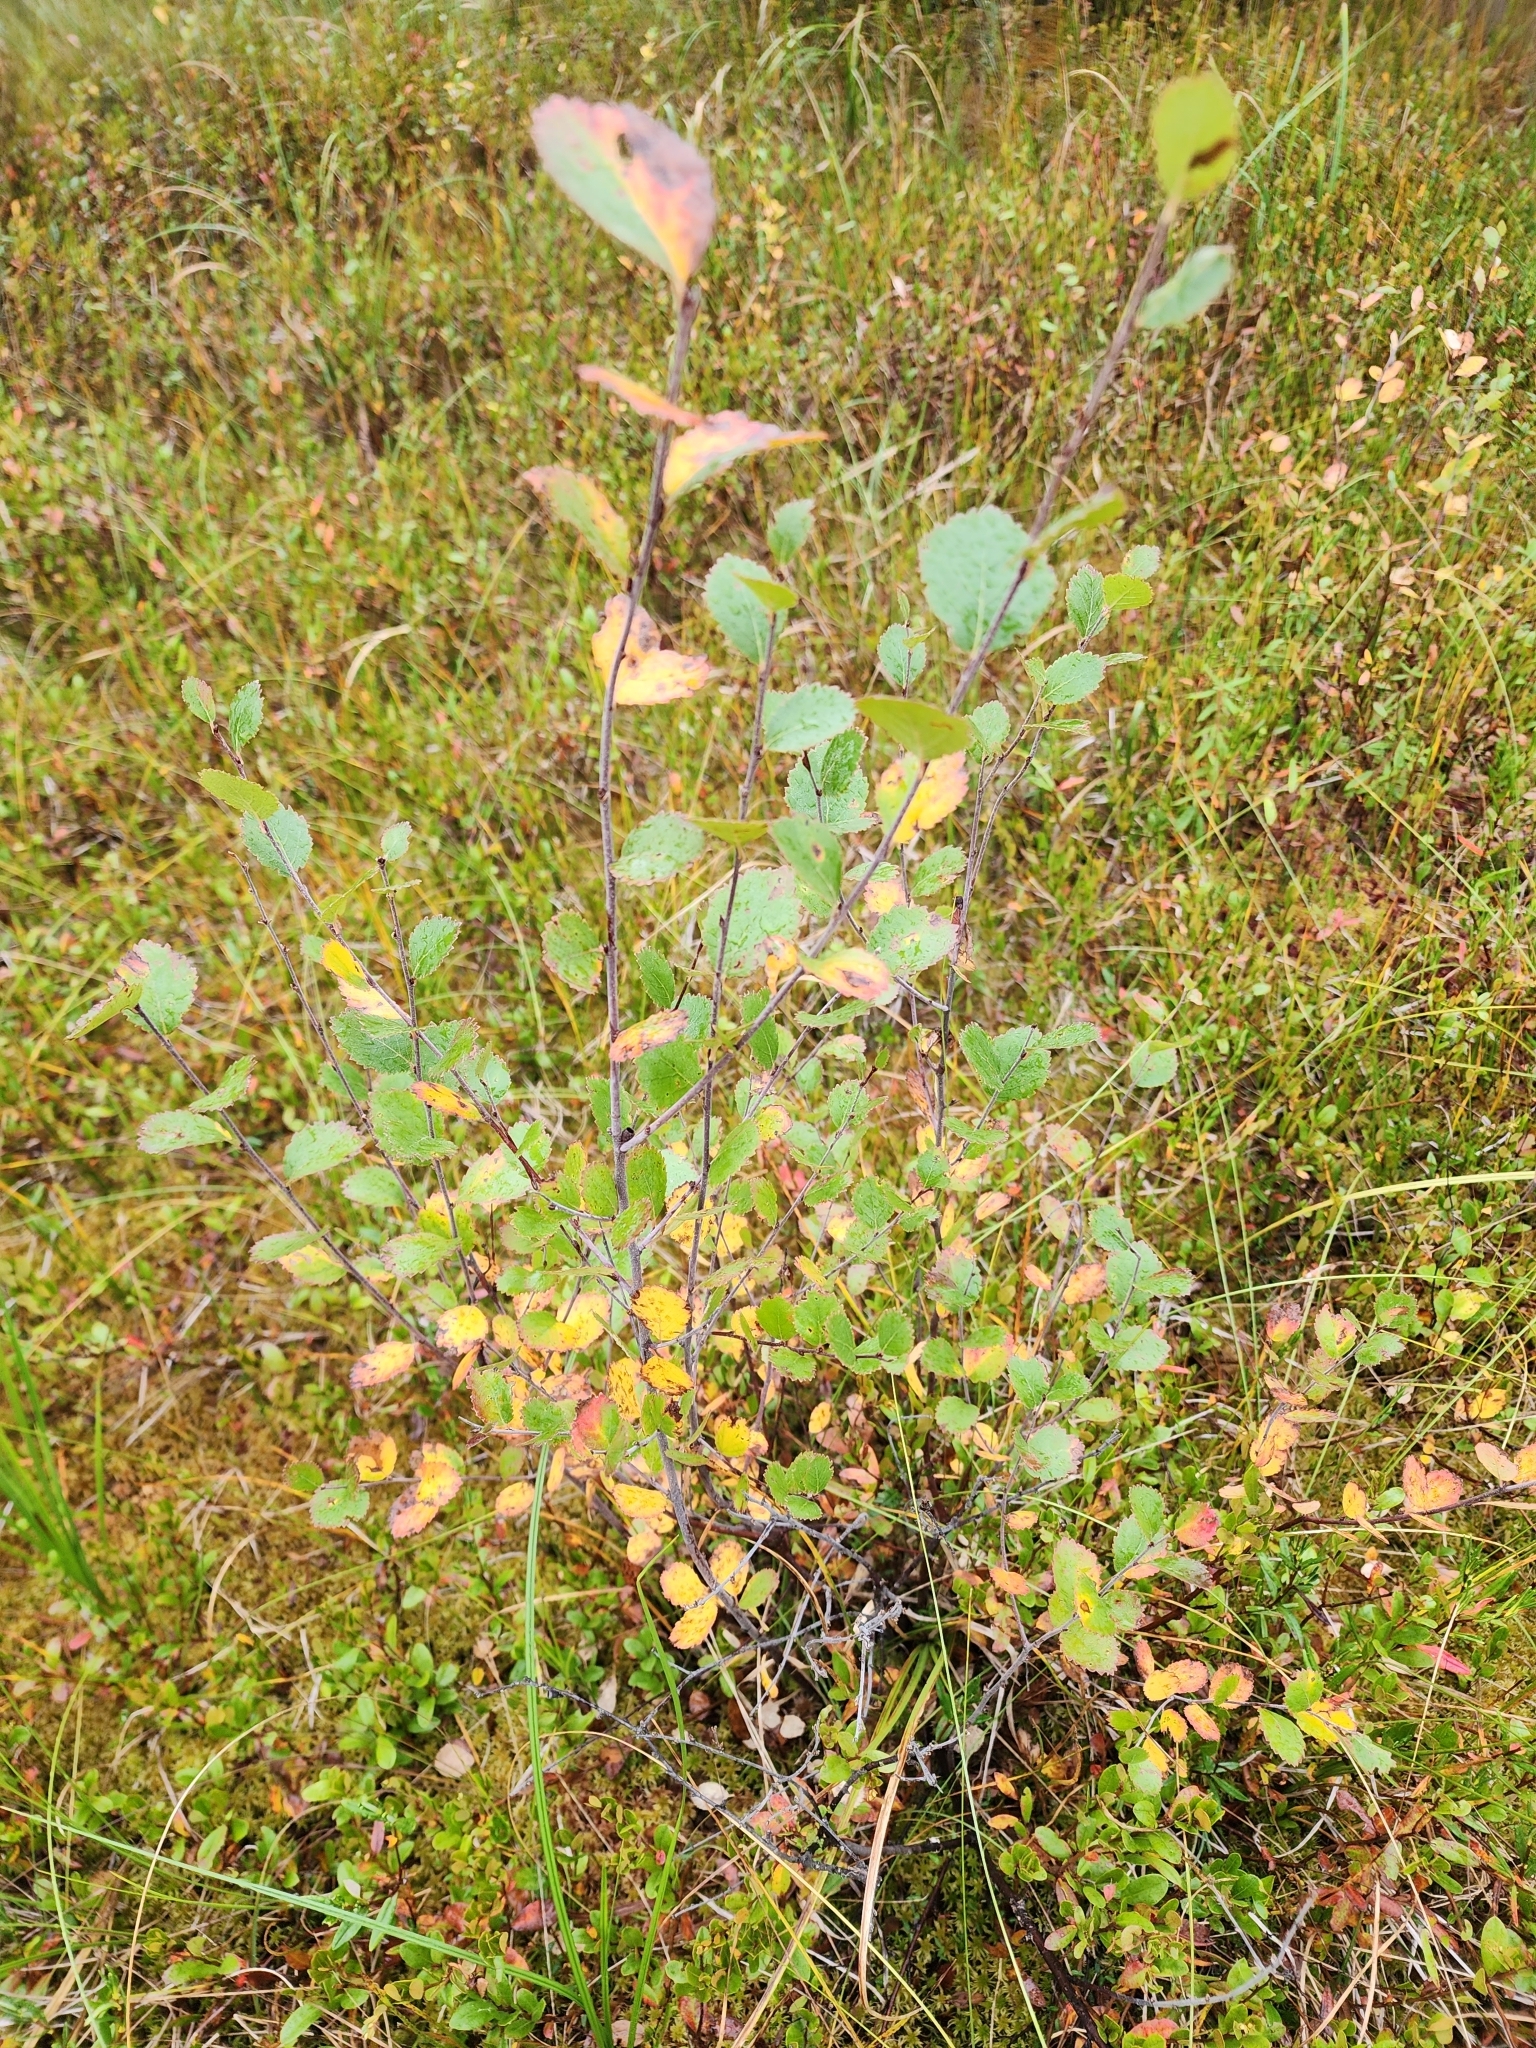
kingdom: Plantae
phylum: Tracheophyta
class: Magnoliopsida
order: Fagales
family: Betulaceae
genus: Betula
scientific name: Betula pumila
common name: Bog birch
